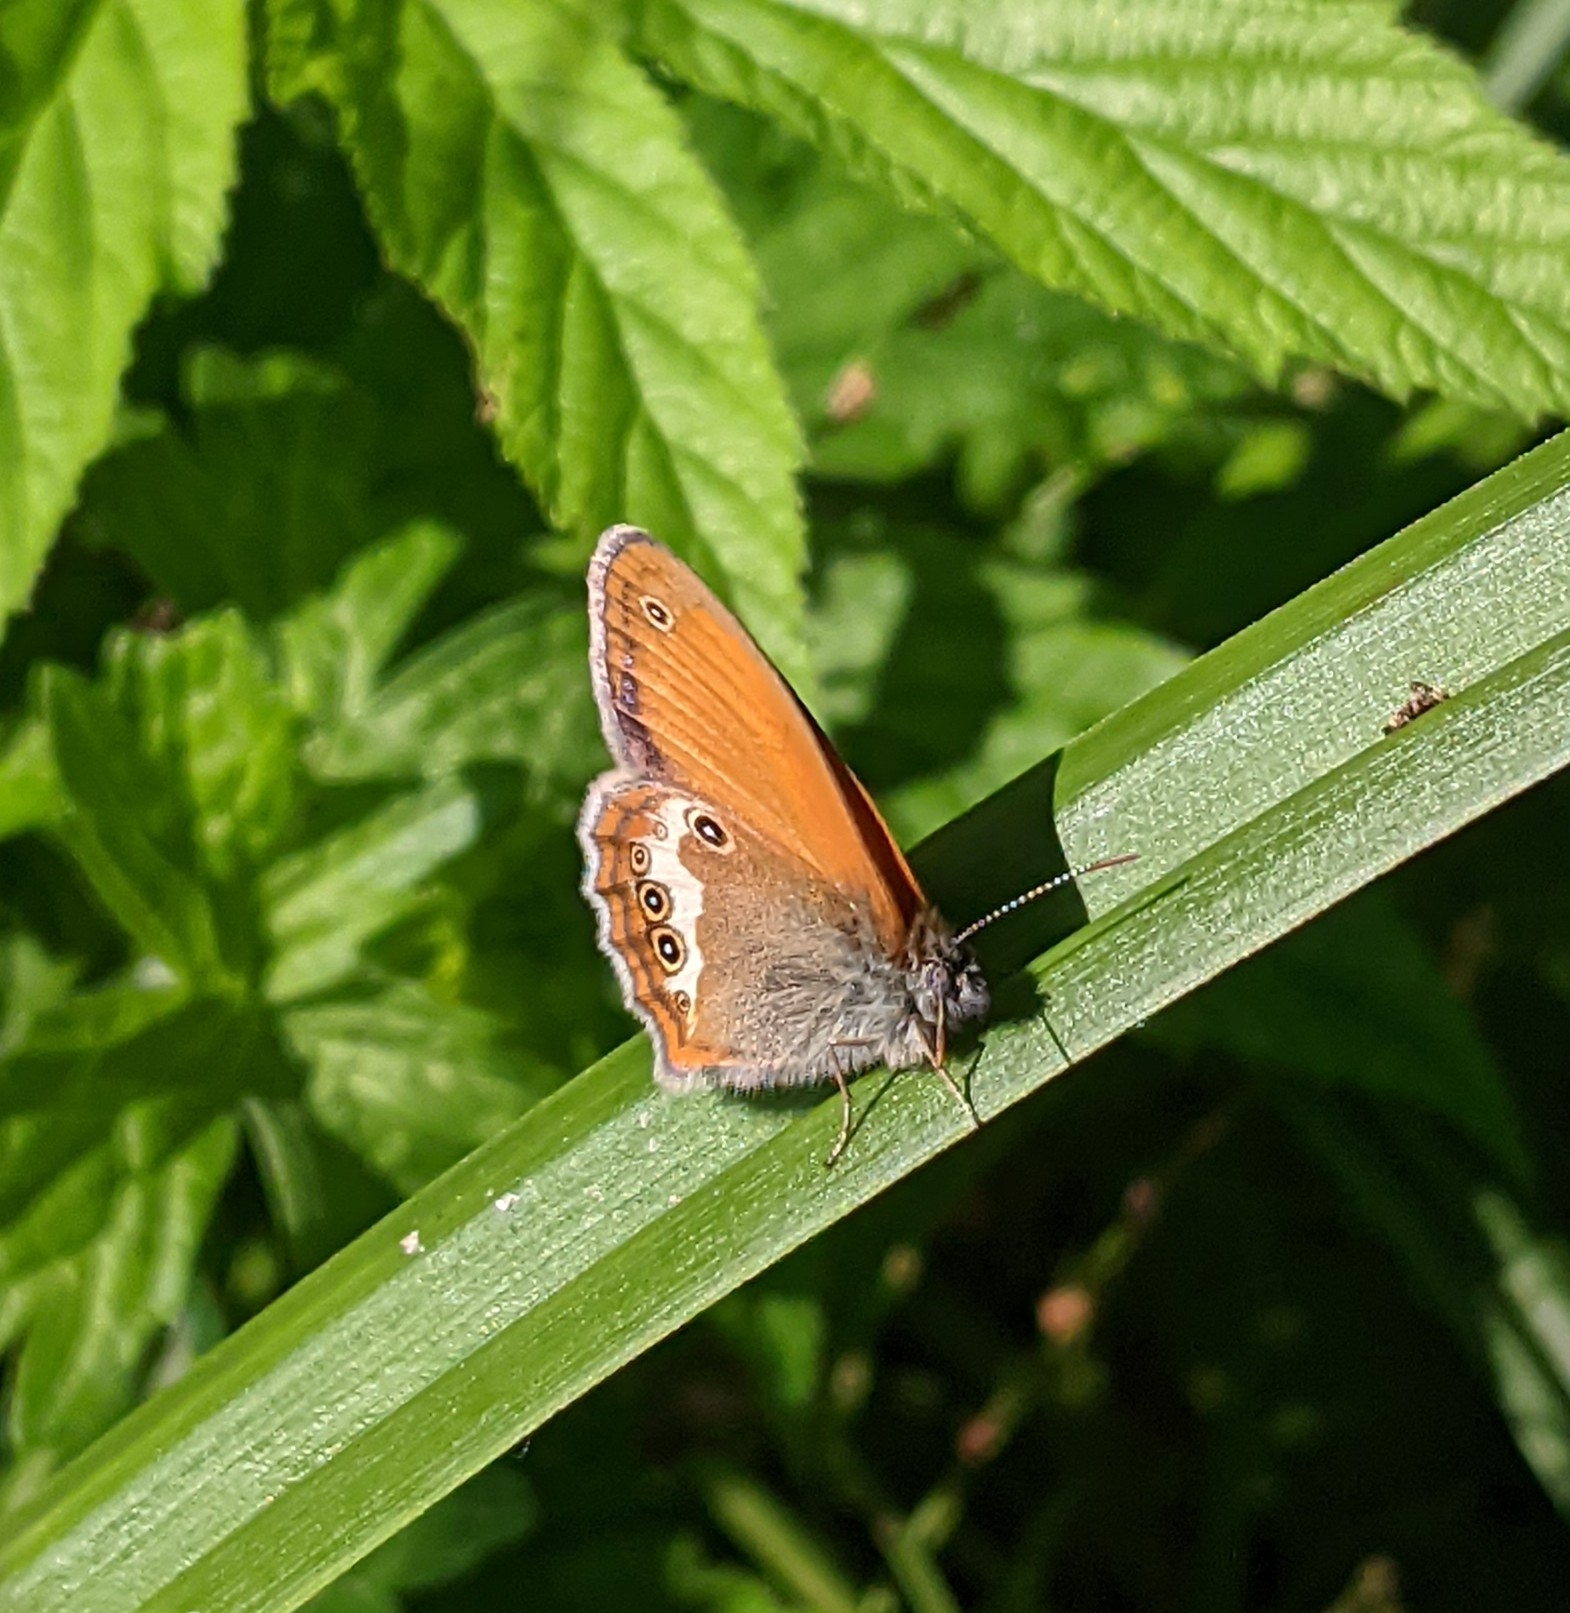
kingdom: Animalia
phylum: Arthropoda
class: Insecta
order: Lepidoptera
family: Nymphalidae
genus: Coenonympha
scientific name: Coenonympha arcania
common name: Pearly heath
